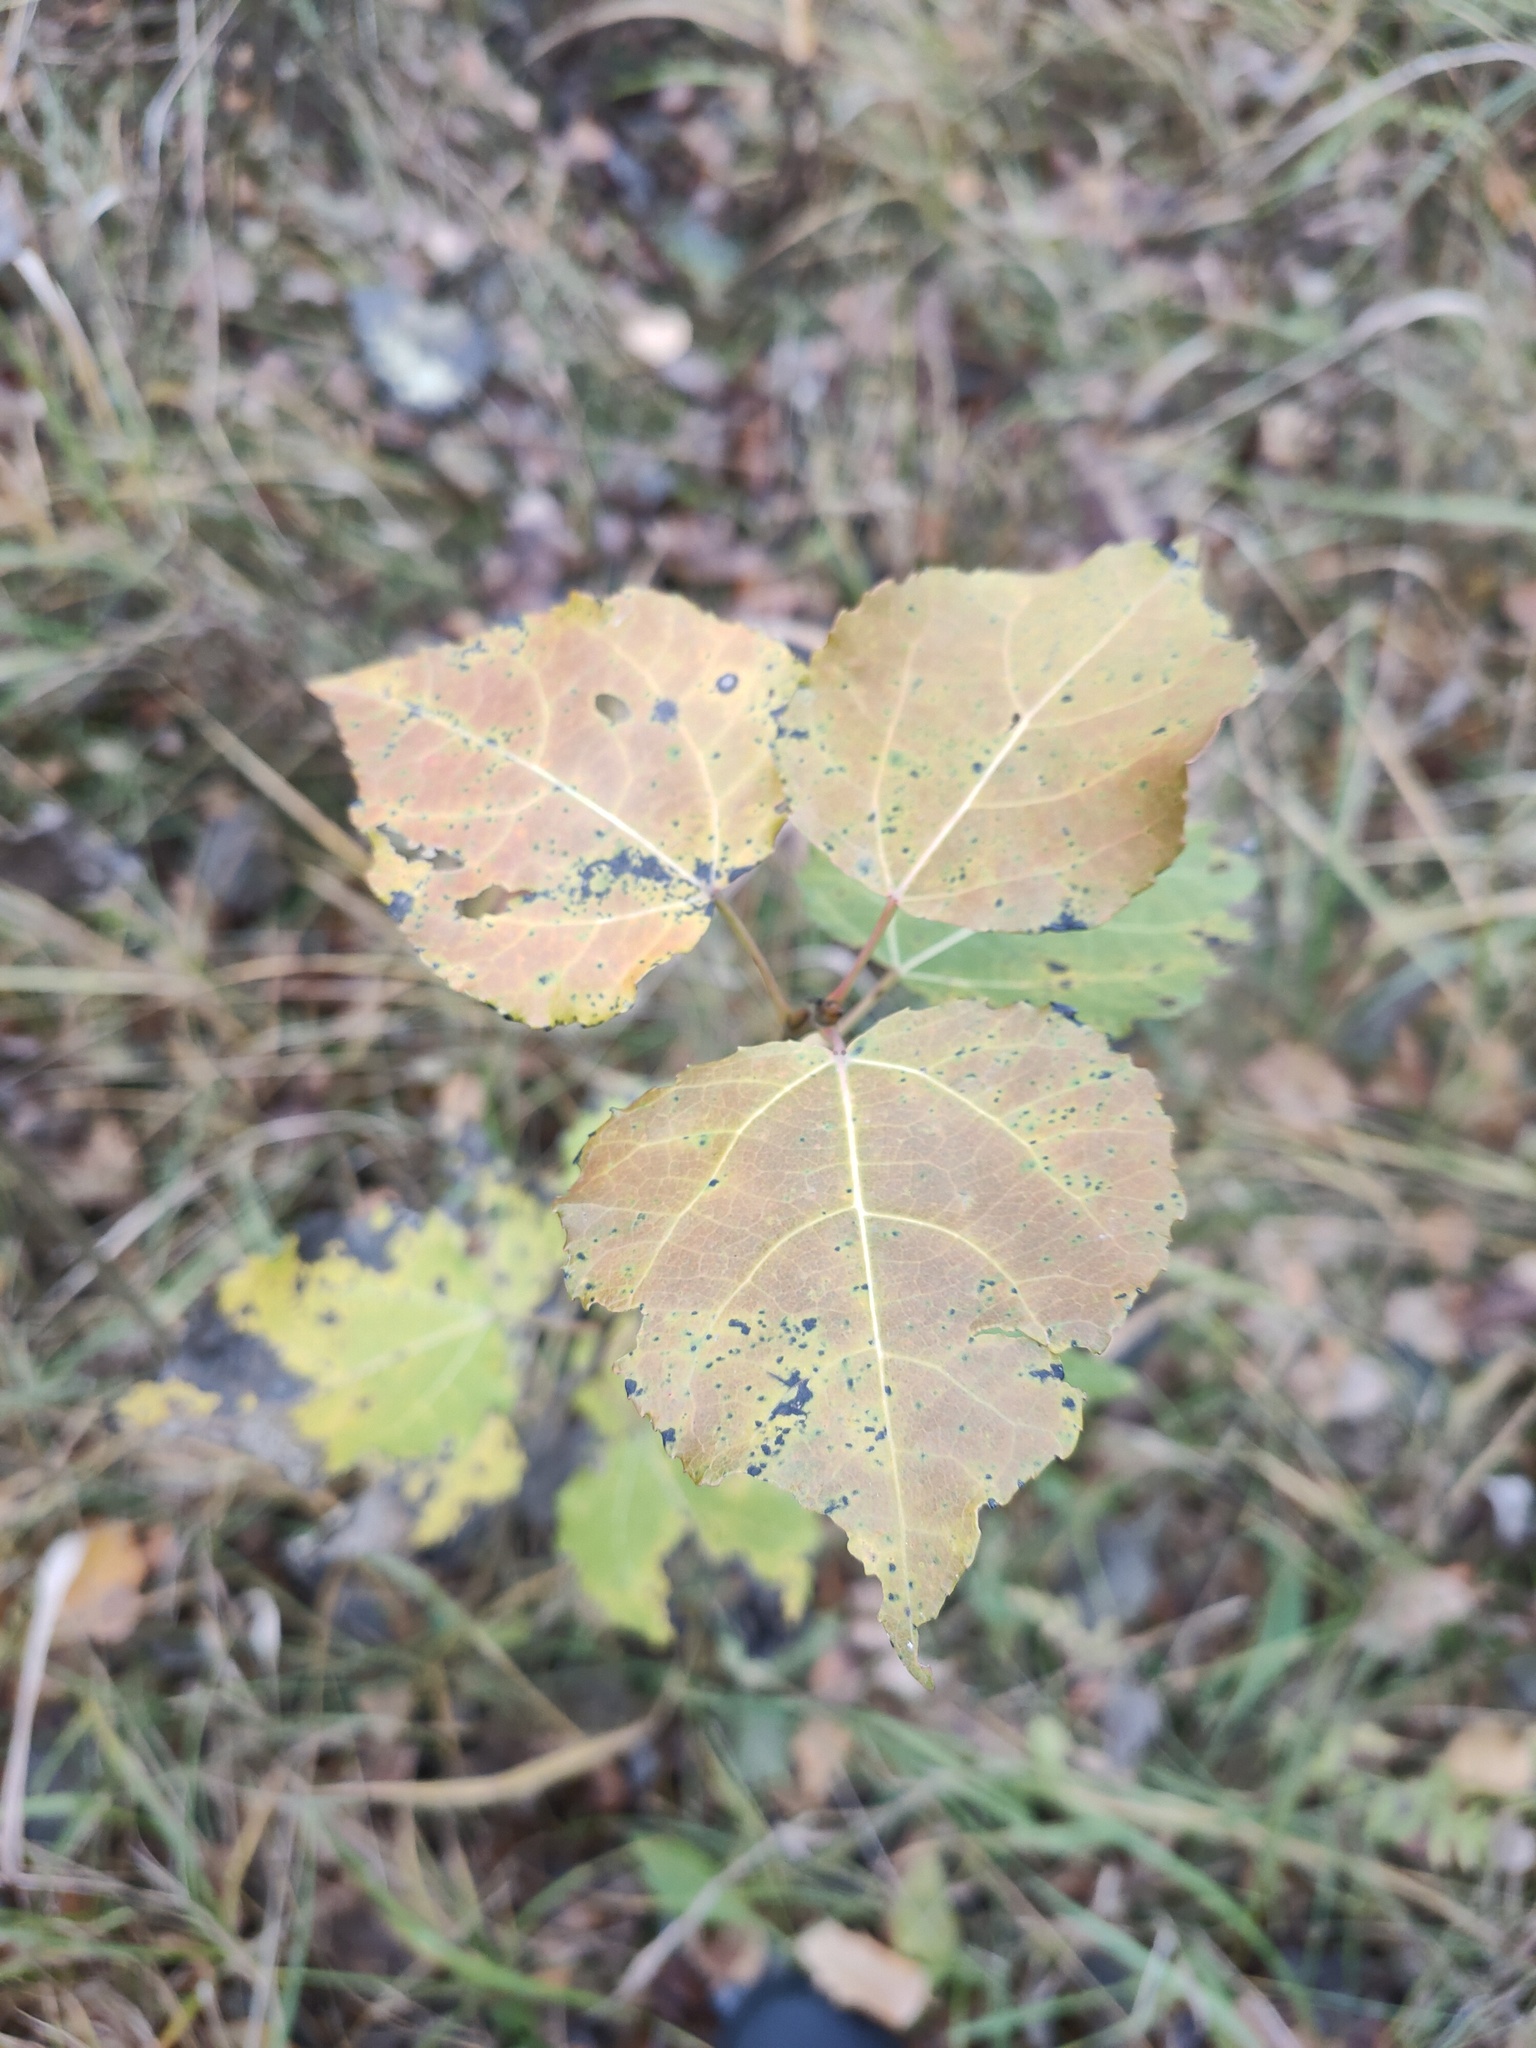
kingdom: Plantae
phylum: Tracheophyta
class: Magnoliopsida
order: Malpighiales
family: Salicaceae
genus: Populus
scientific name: Populus tremula
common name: European aspen
